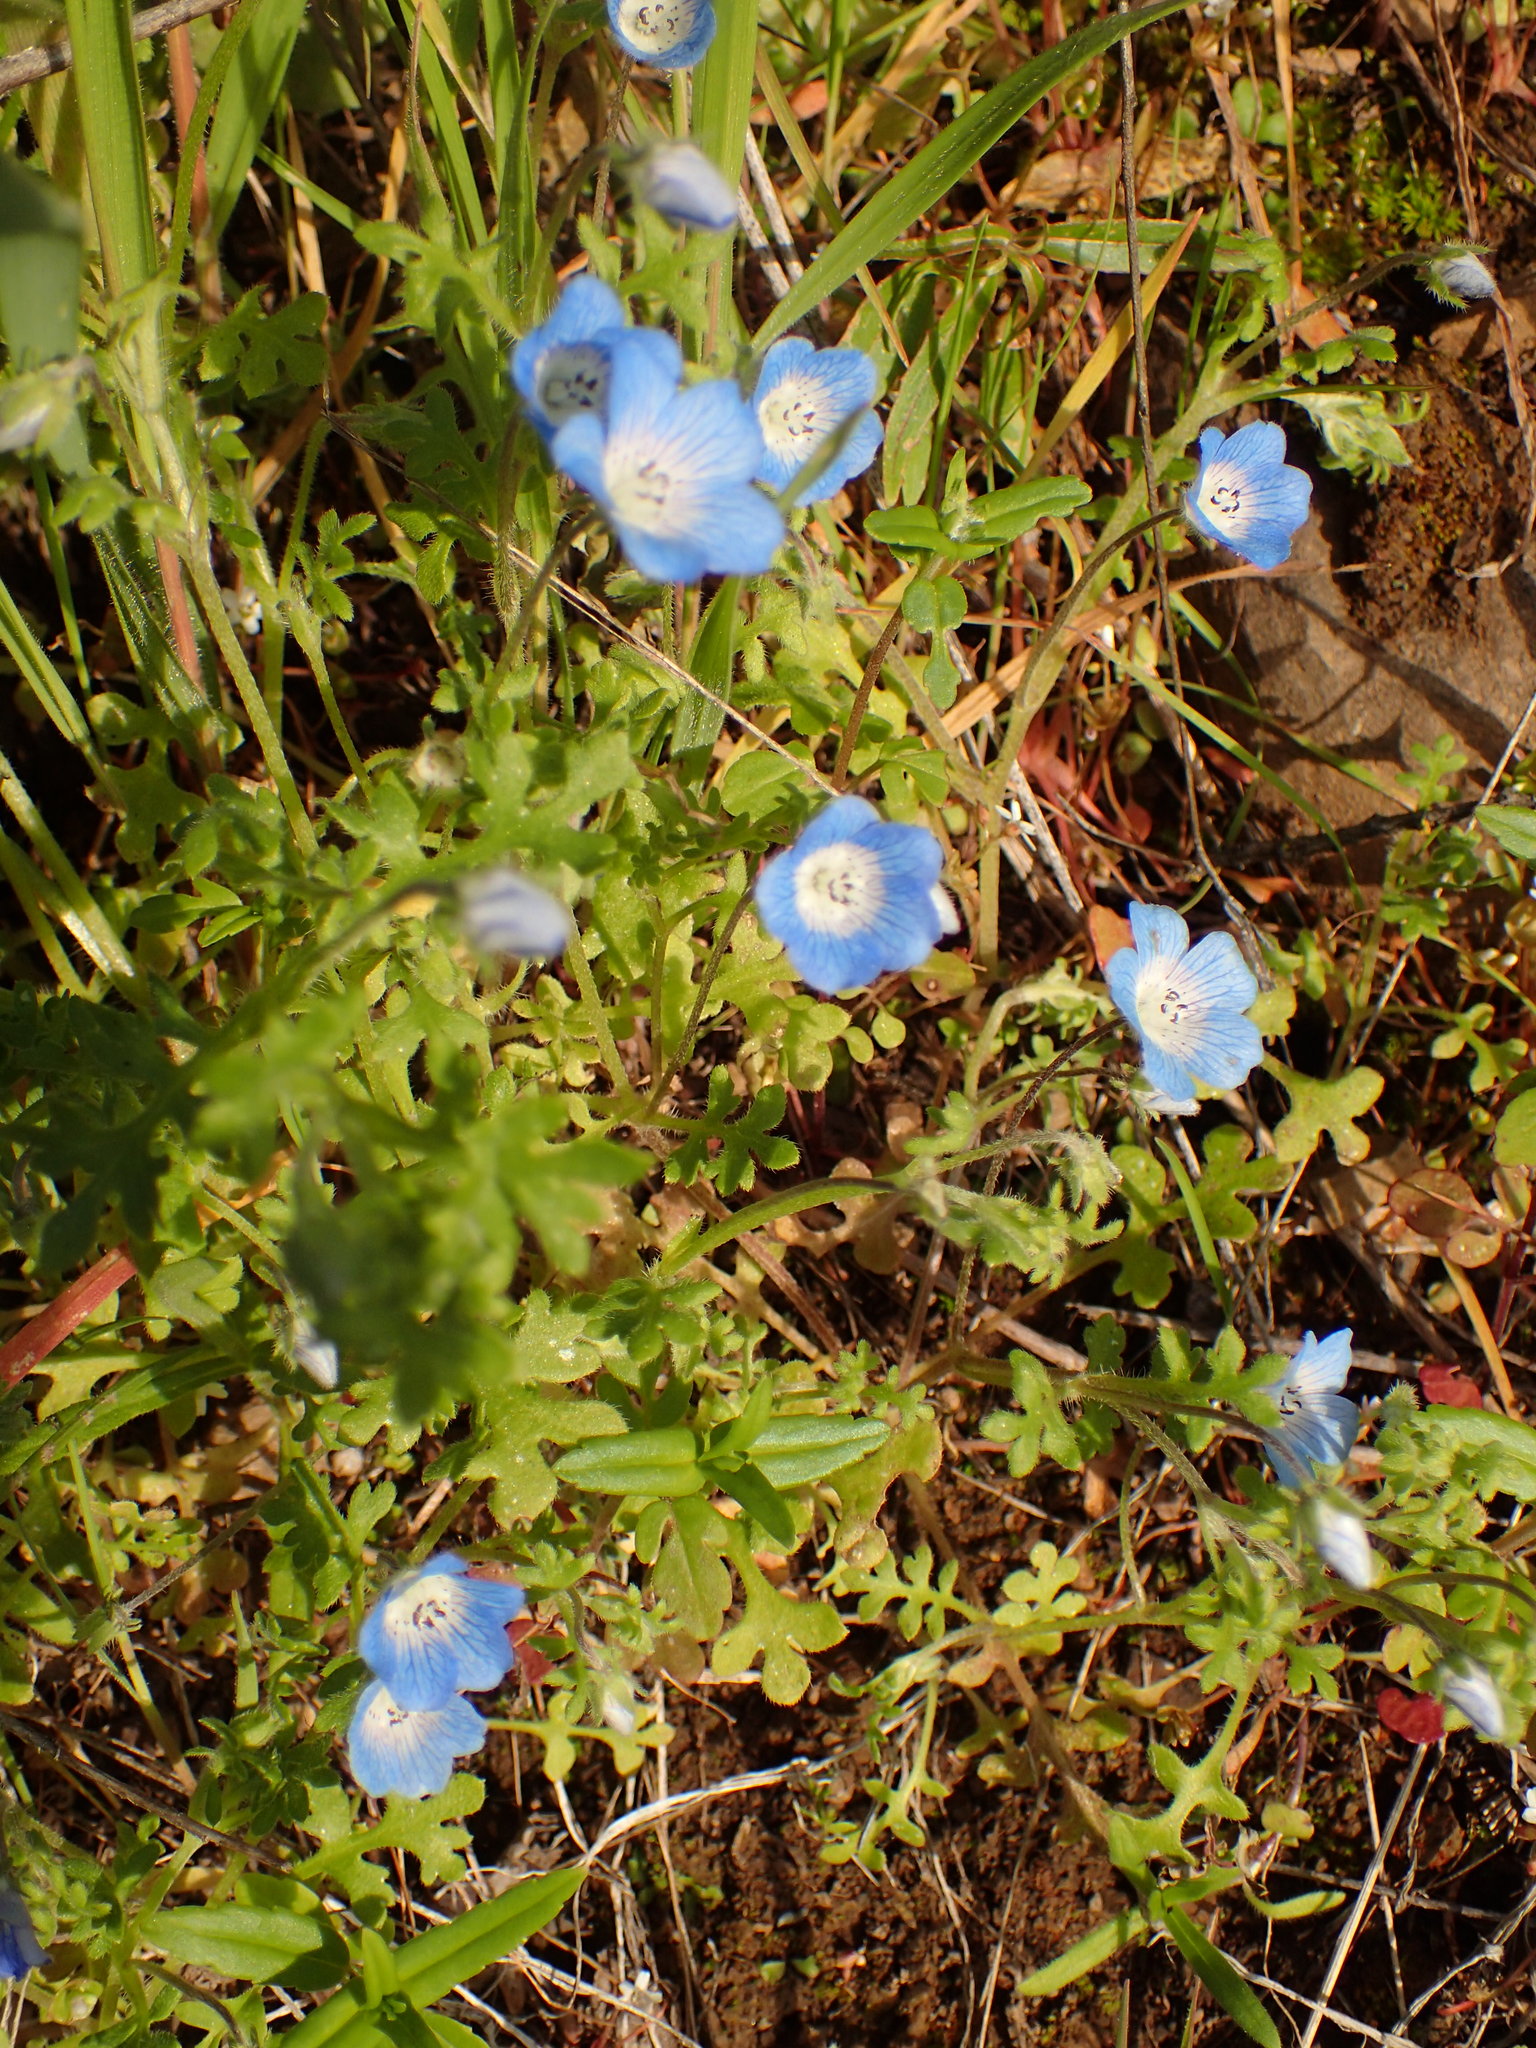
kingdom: Plantae
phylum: Tracheophyta
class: Magnoliopsida
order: Boraginales
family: Hydrophyllaceae
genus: Nemophila
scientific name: Nemophila menziesii
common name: Baby's-blue-eyes
